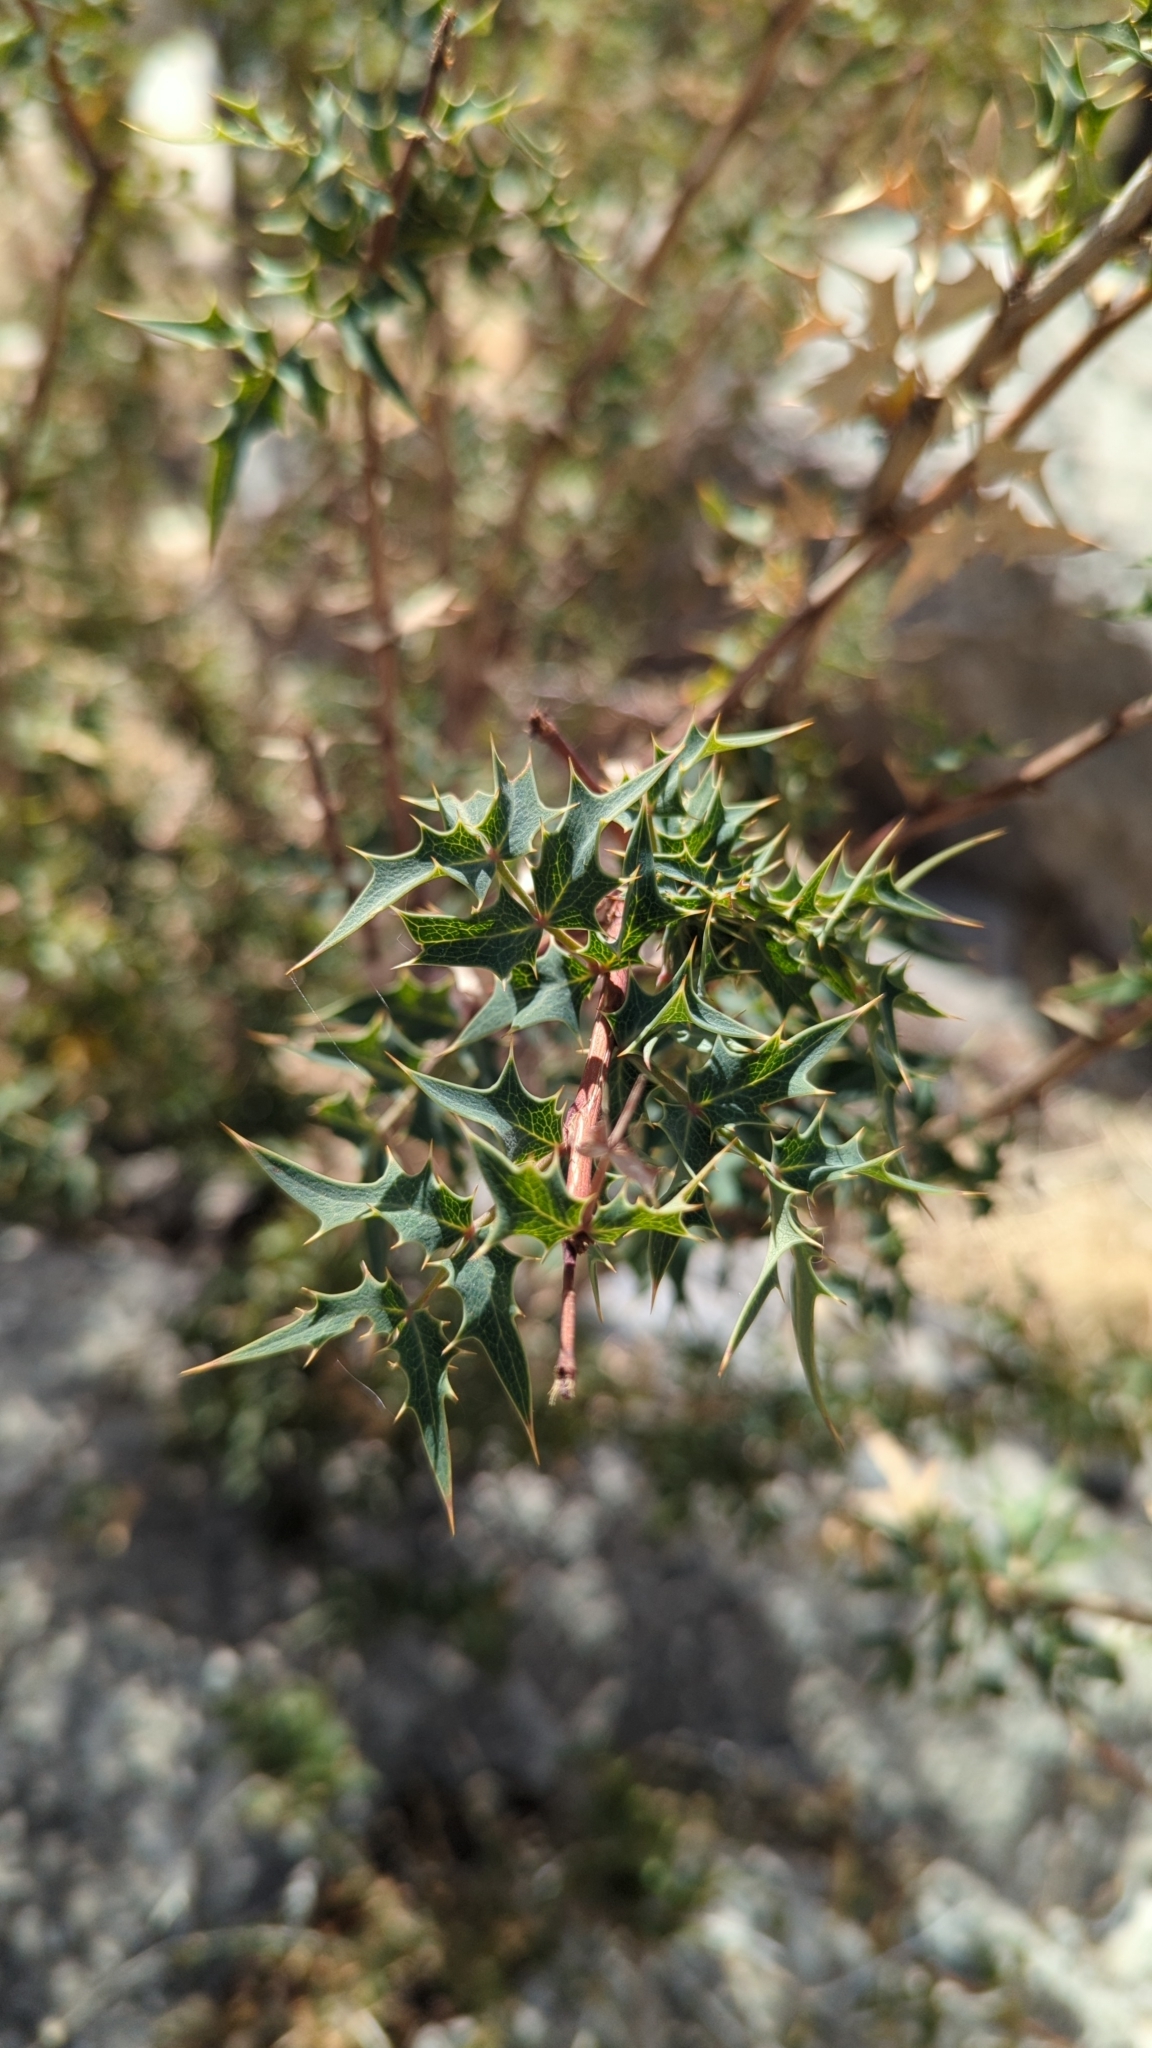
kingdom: Plantae
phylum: Tracheophyta
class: Magnoliopsida
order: Ranunculales
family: Berberidaceae
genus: Alloberberis
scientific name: Alloberberis haematocarpa
